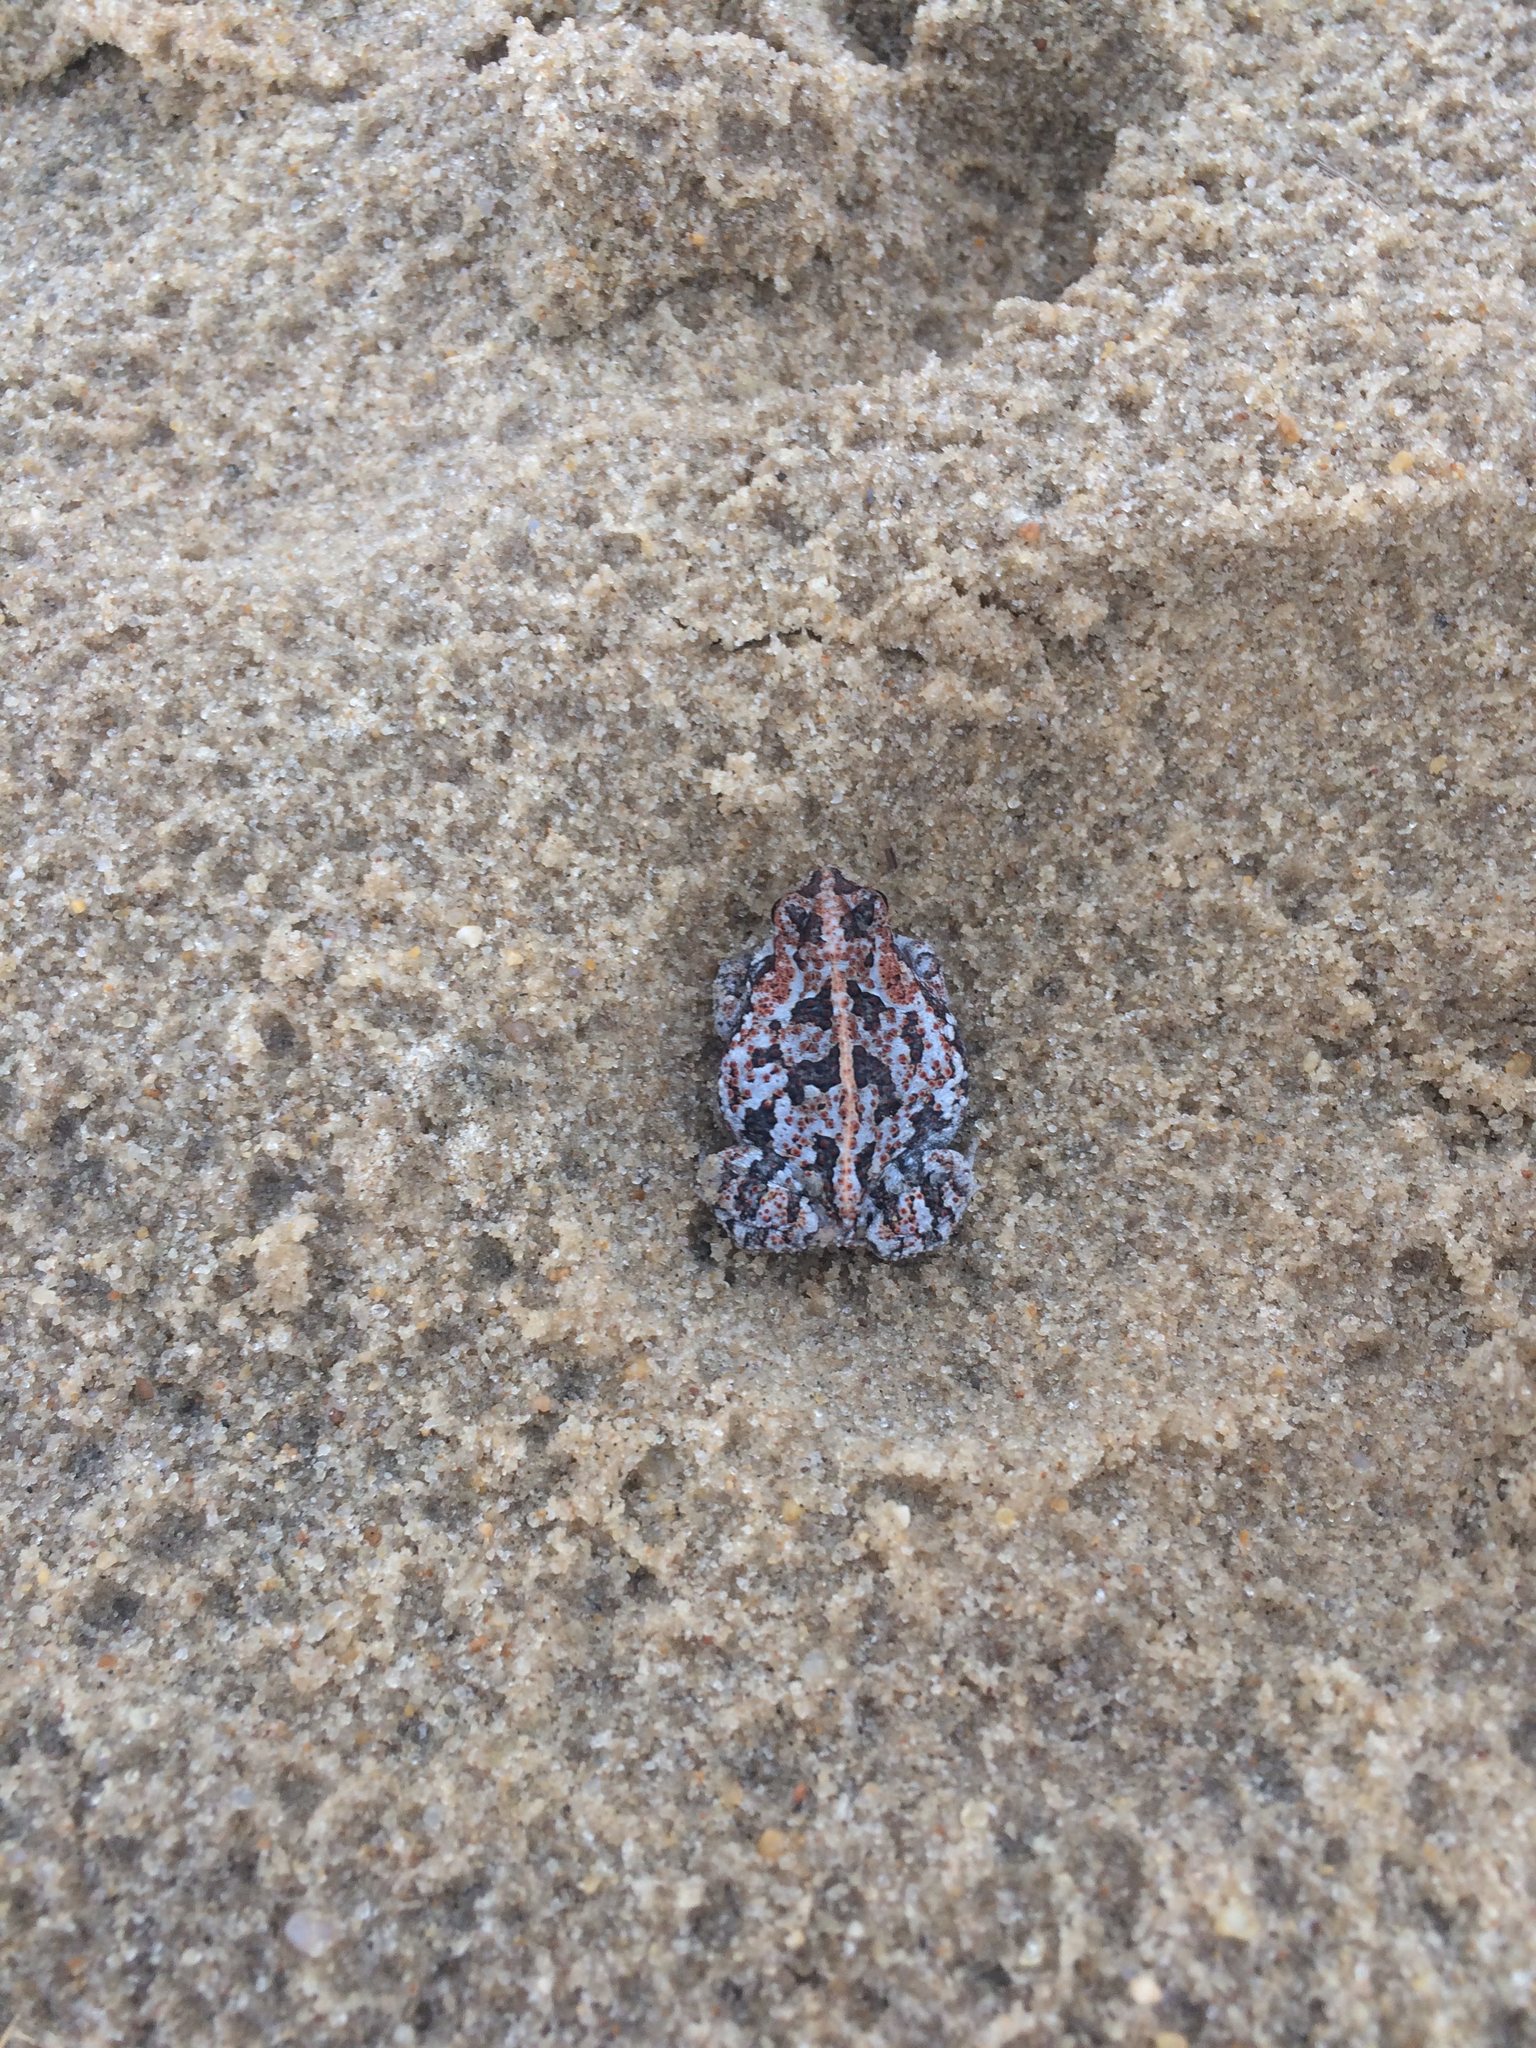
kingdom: Animalia
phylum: Chordata
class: Amphibia
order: Anura
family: Bufonidae
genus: Anaxyrus
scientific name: Anaxyrus quercicus
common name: Oak toad
